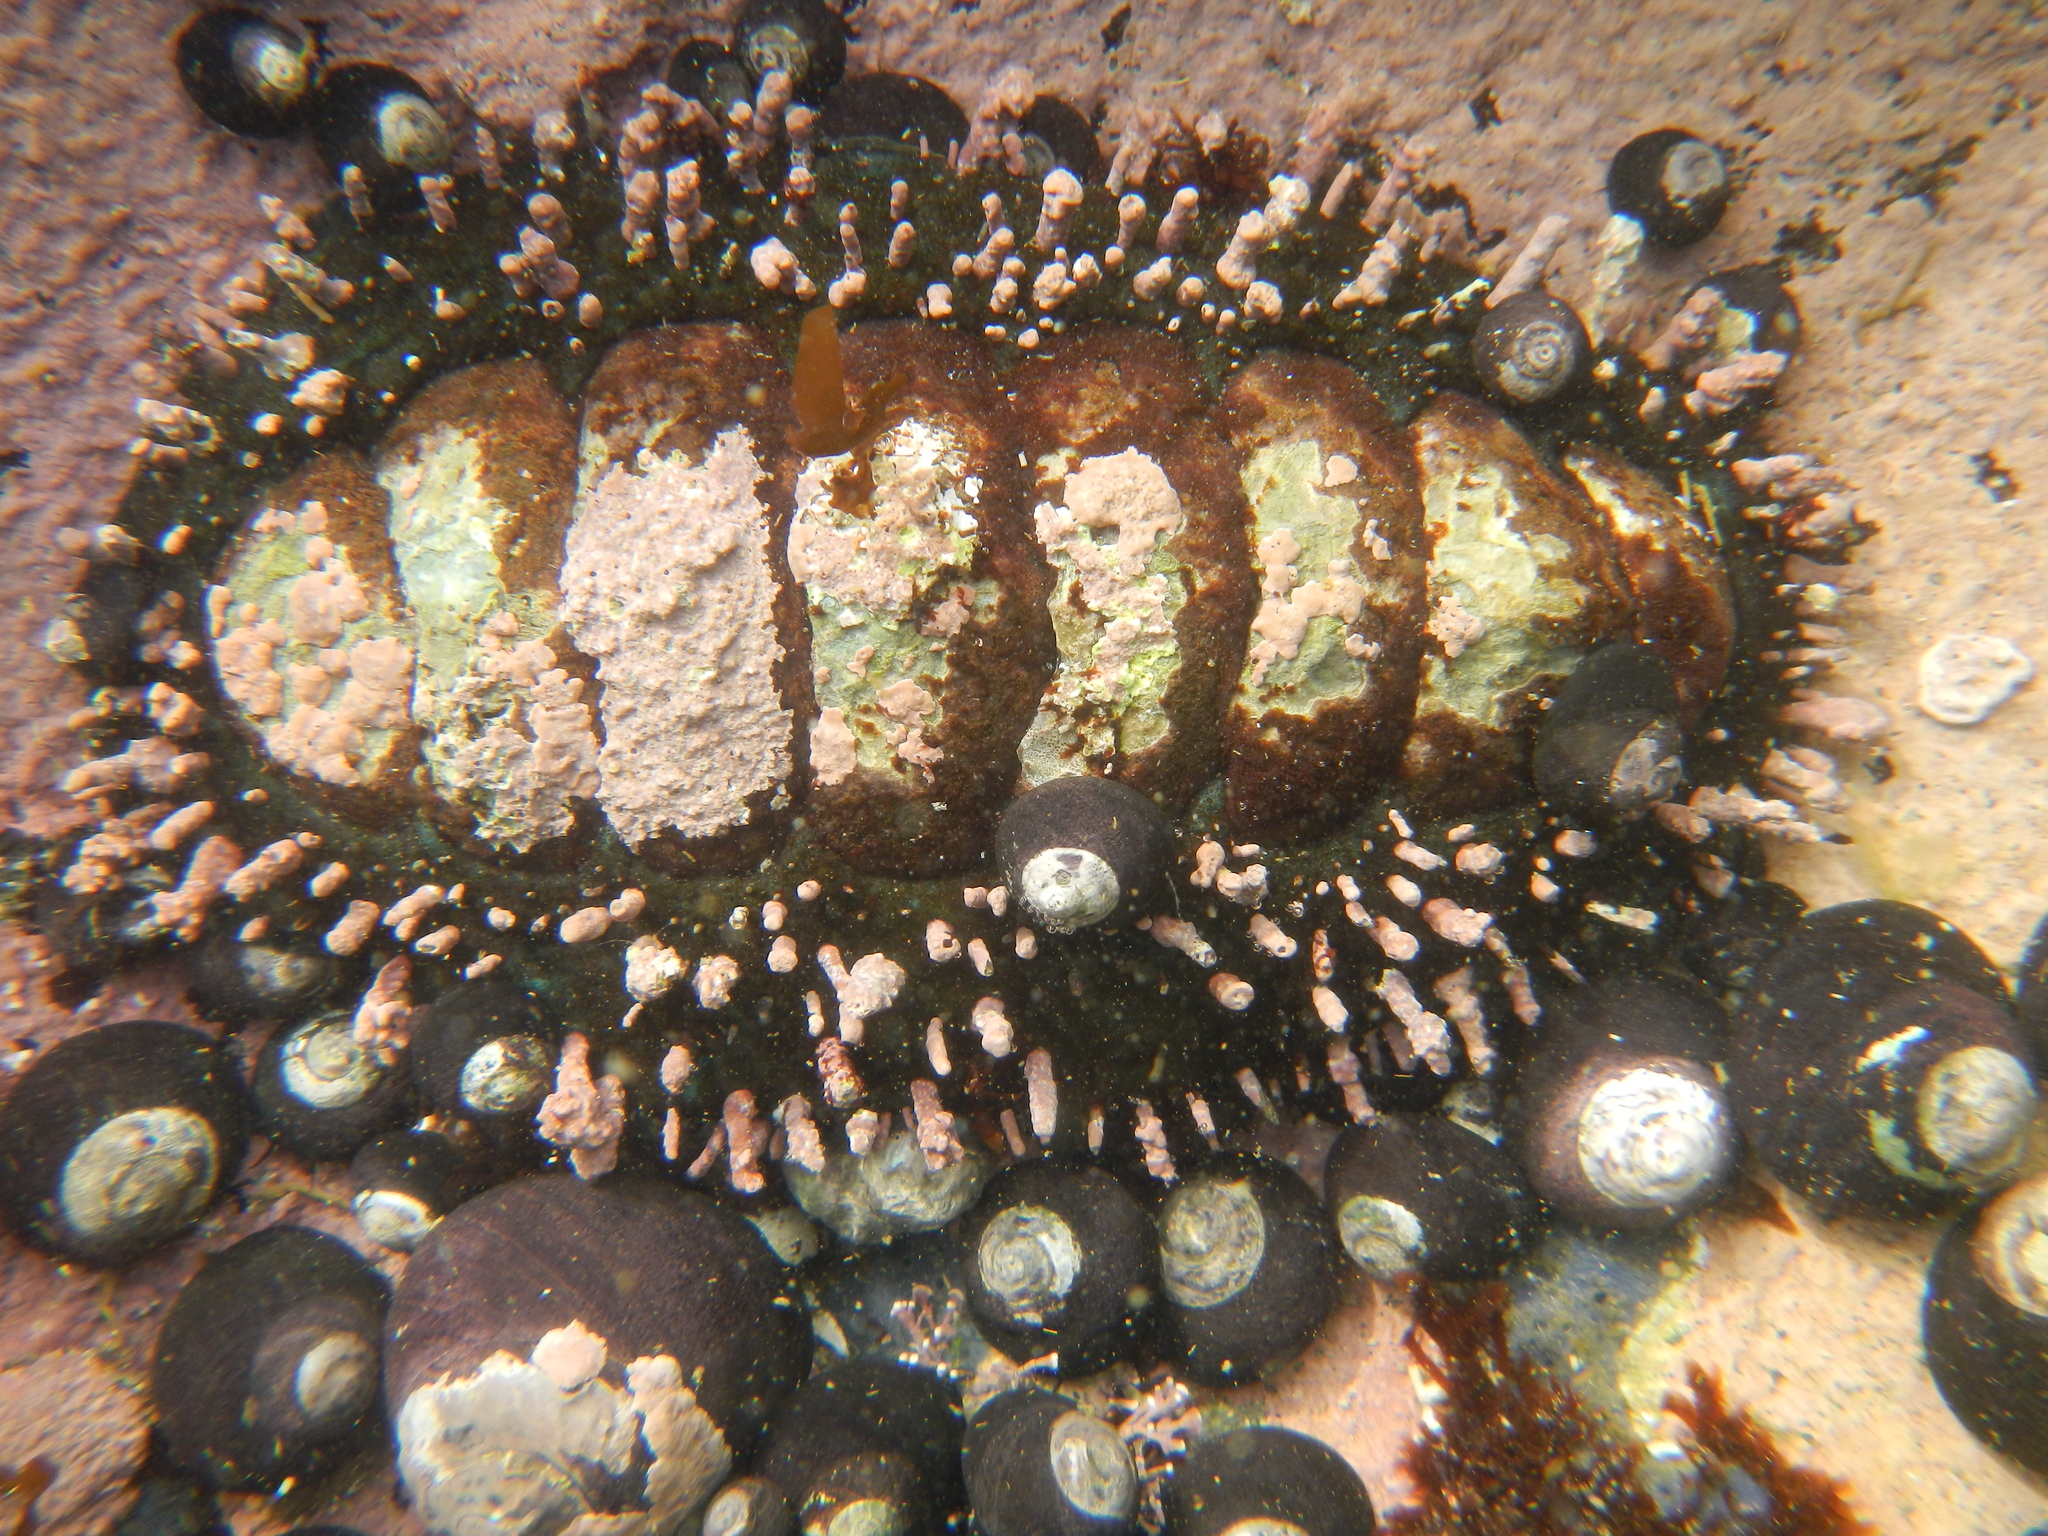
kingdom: Animalia
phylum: Mollusca
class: Polyplacophora
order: Chitonida
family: Chitonidae
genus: Enoplochiton
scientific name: Enoplochiton echinatus
